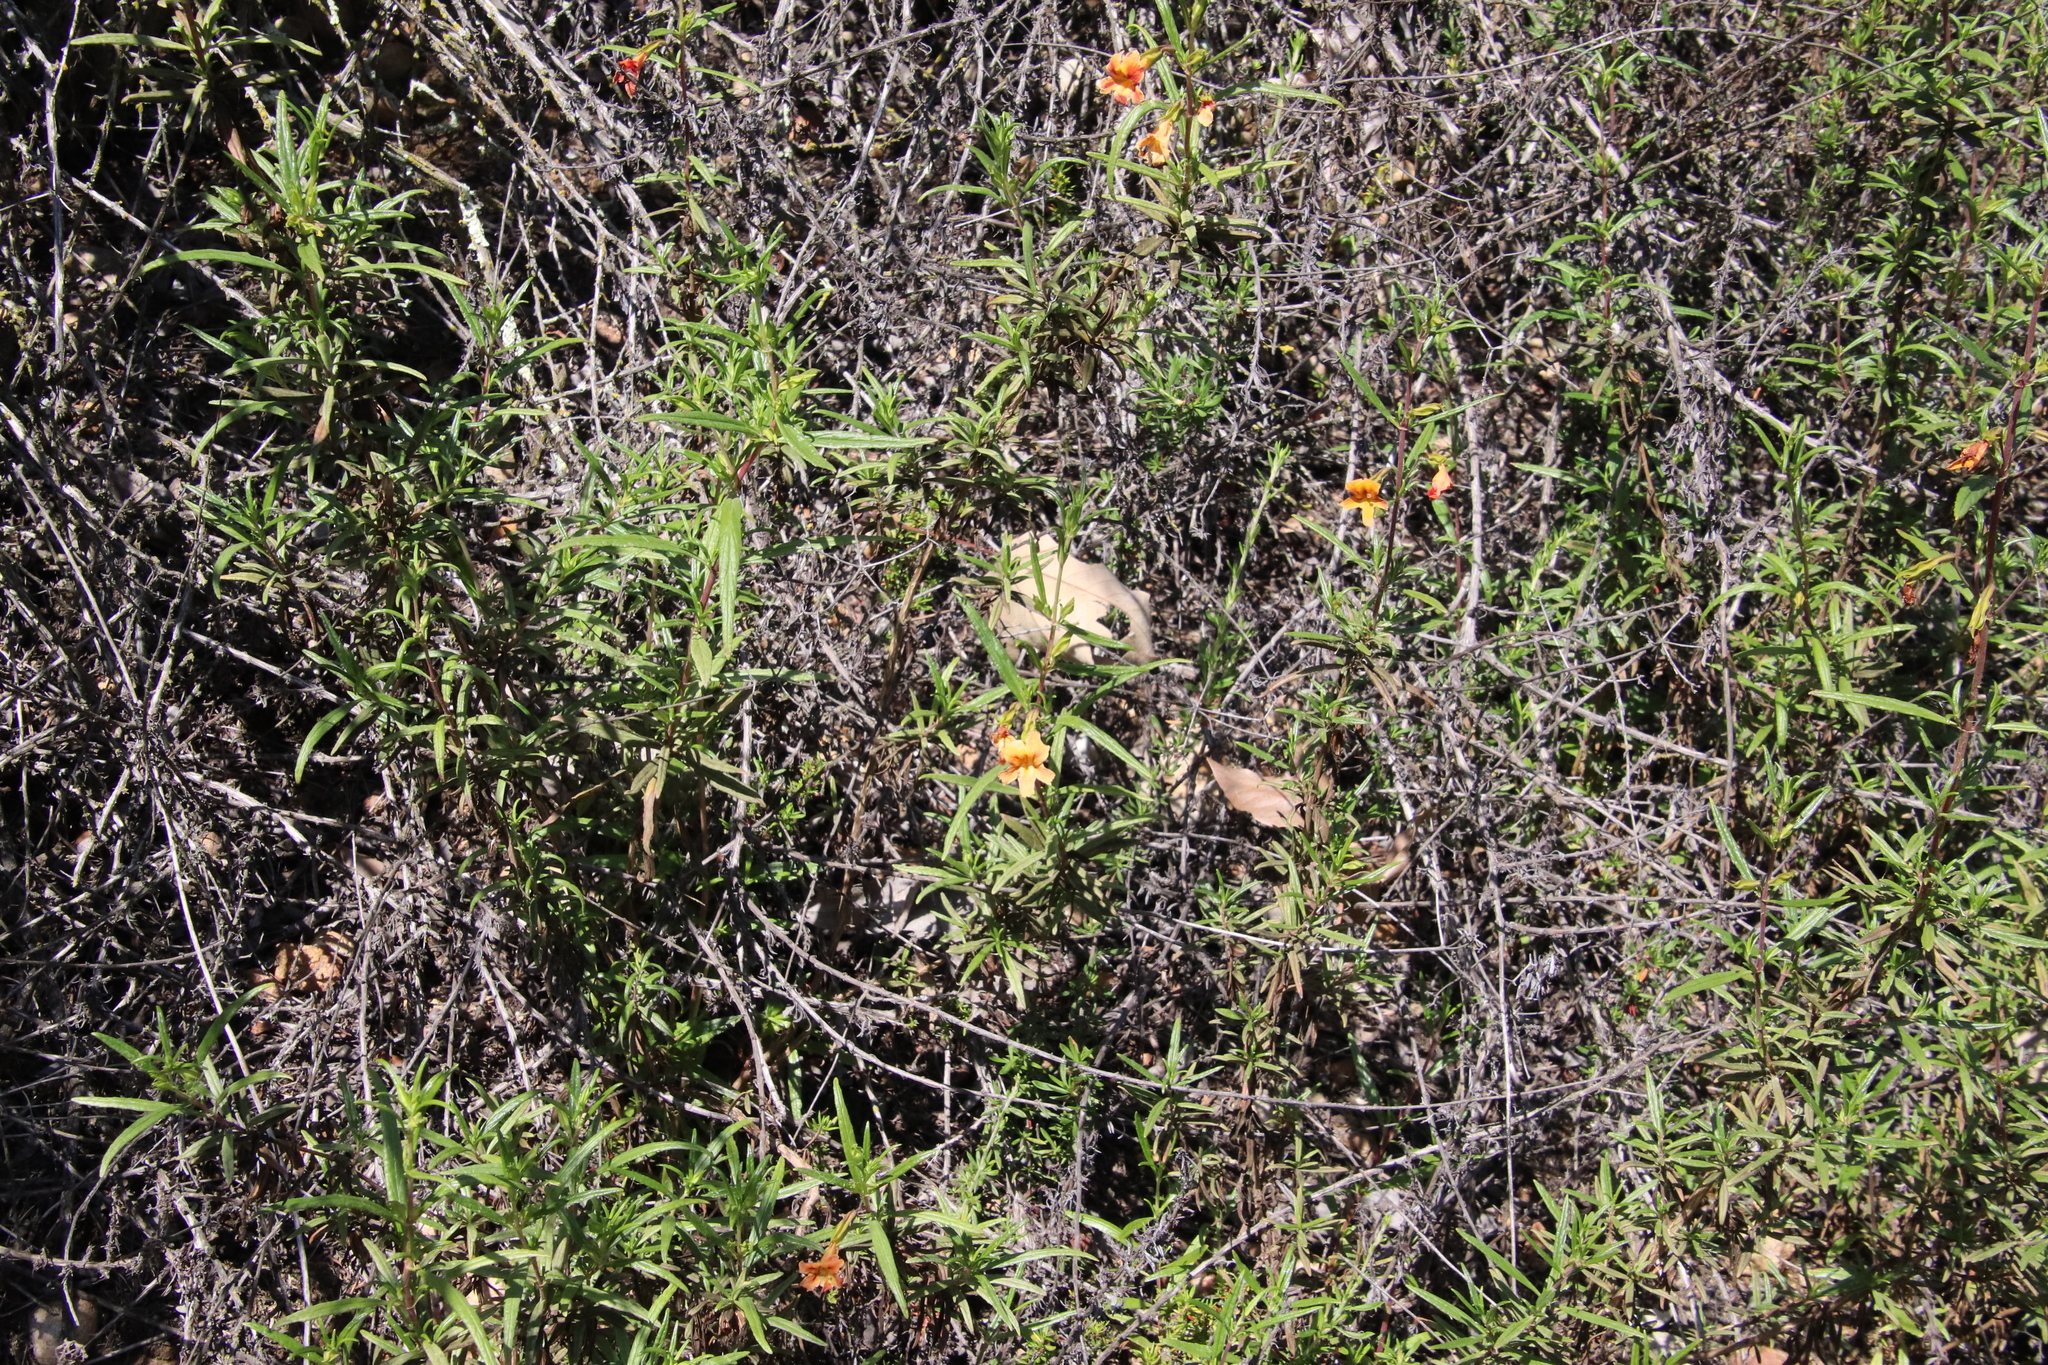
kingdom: Plantae
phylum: Tracheophyta
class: Magnoliopsida
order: Lamiales
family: Phrymaceae
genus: Diplacus
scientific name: Diplacus australis
